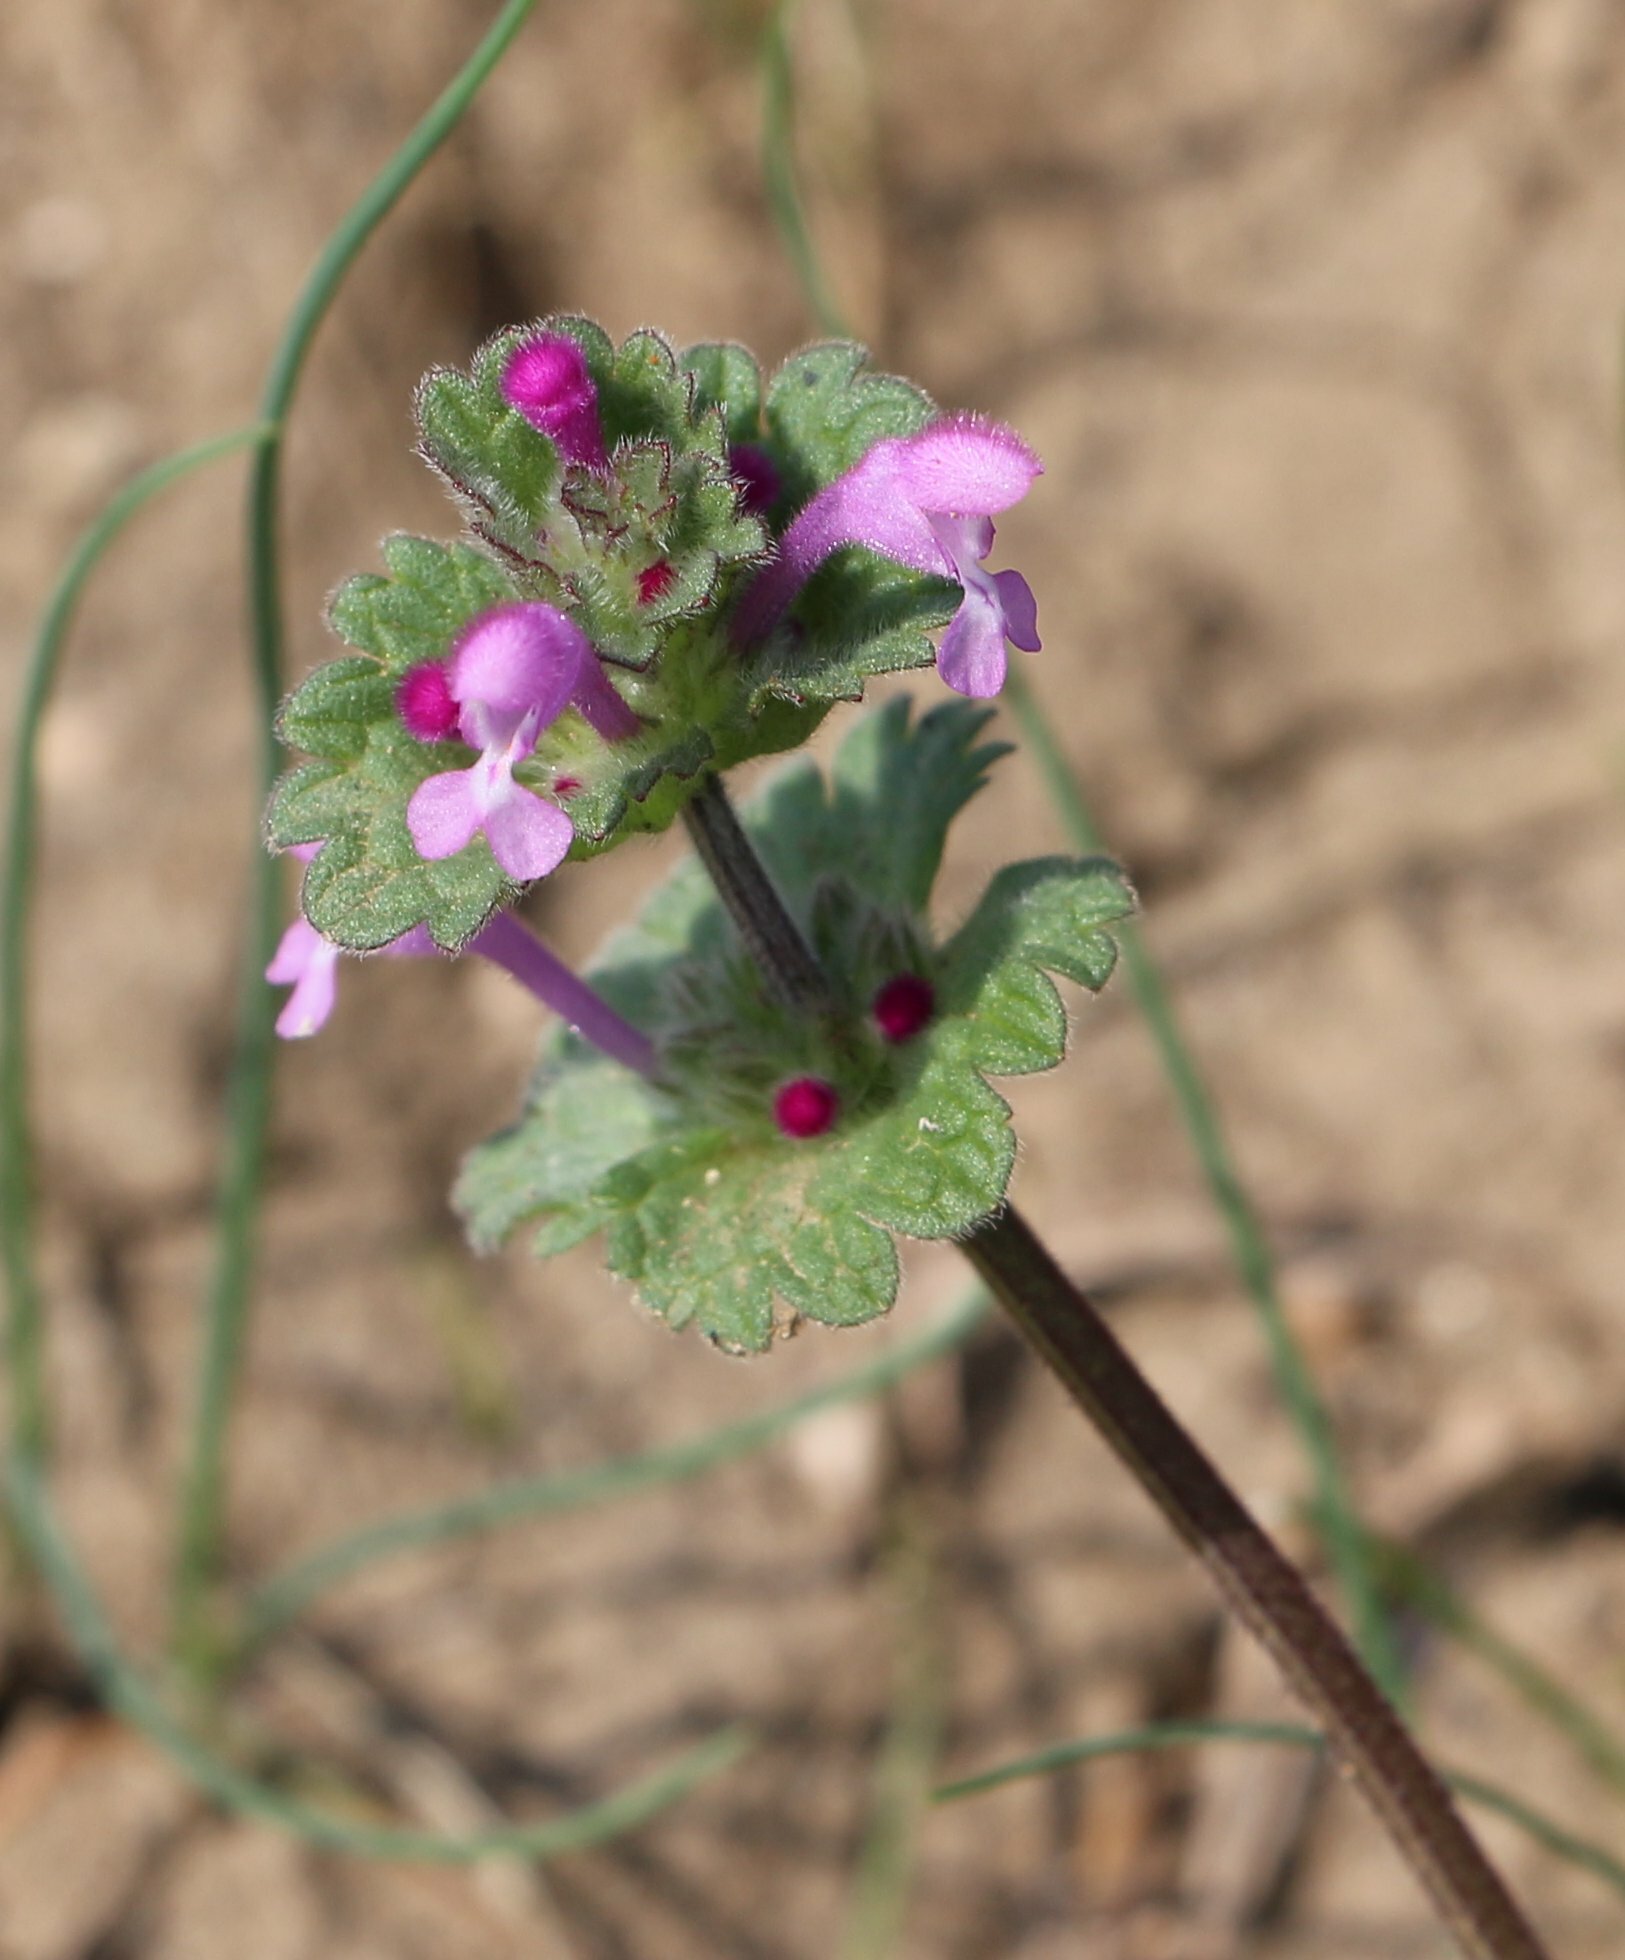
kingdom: Plantae
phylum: Tracheophyta
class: Magnoliopsida
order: Lamiales
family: Lamiaceae
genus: Lamium
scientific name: Lamium amplexicaule
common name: Henbit dead-nettle
